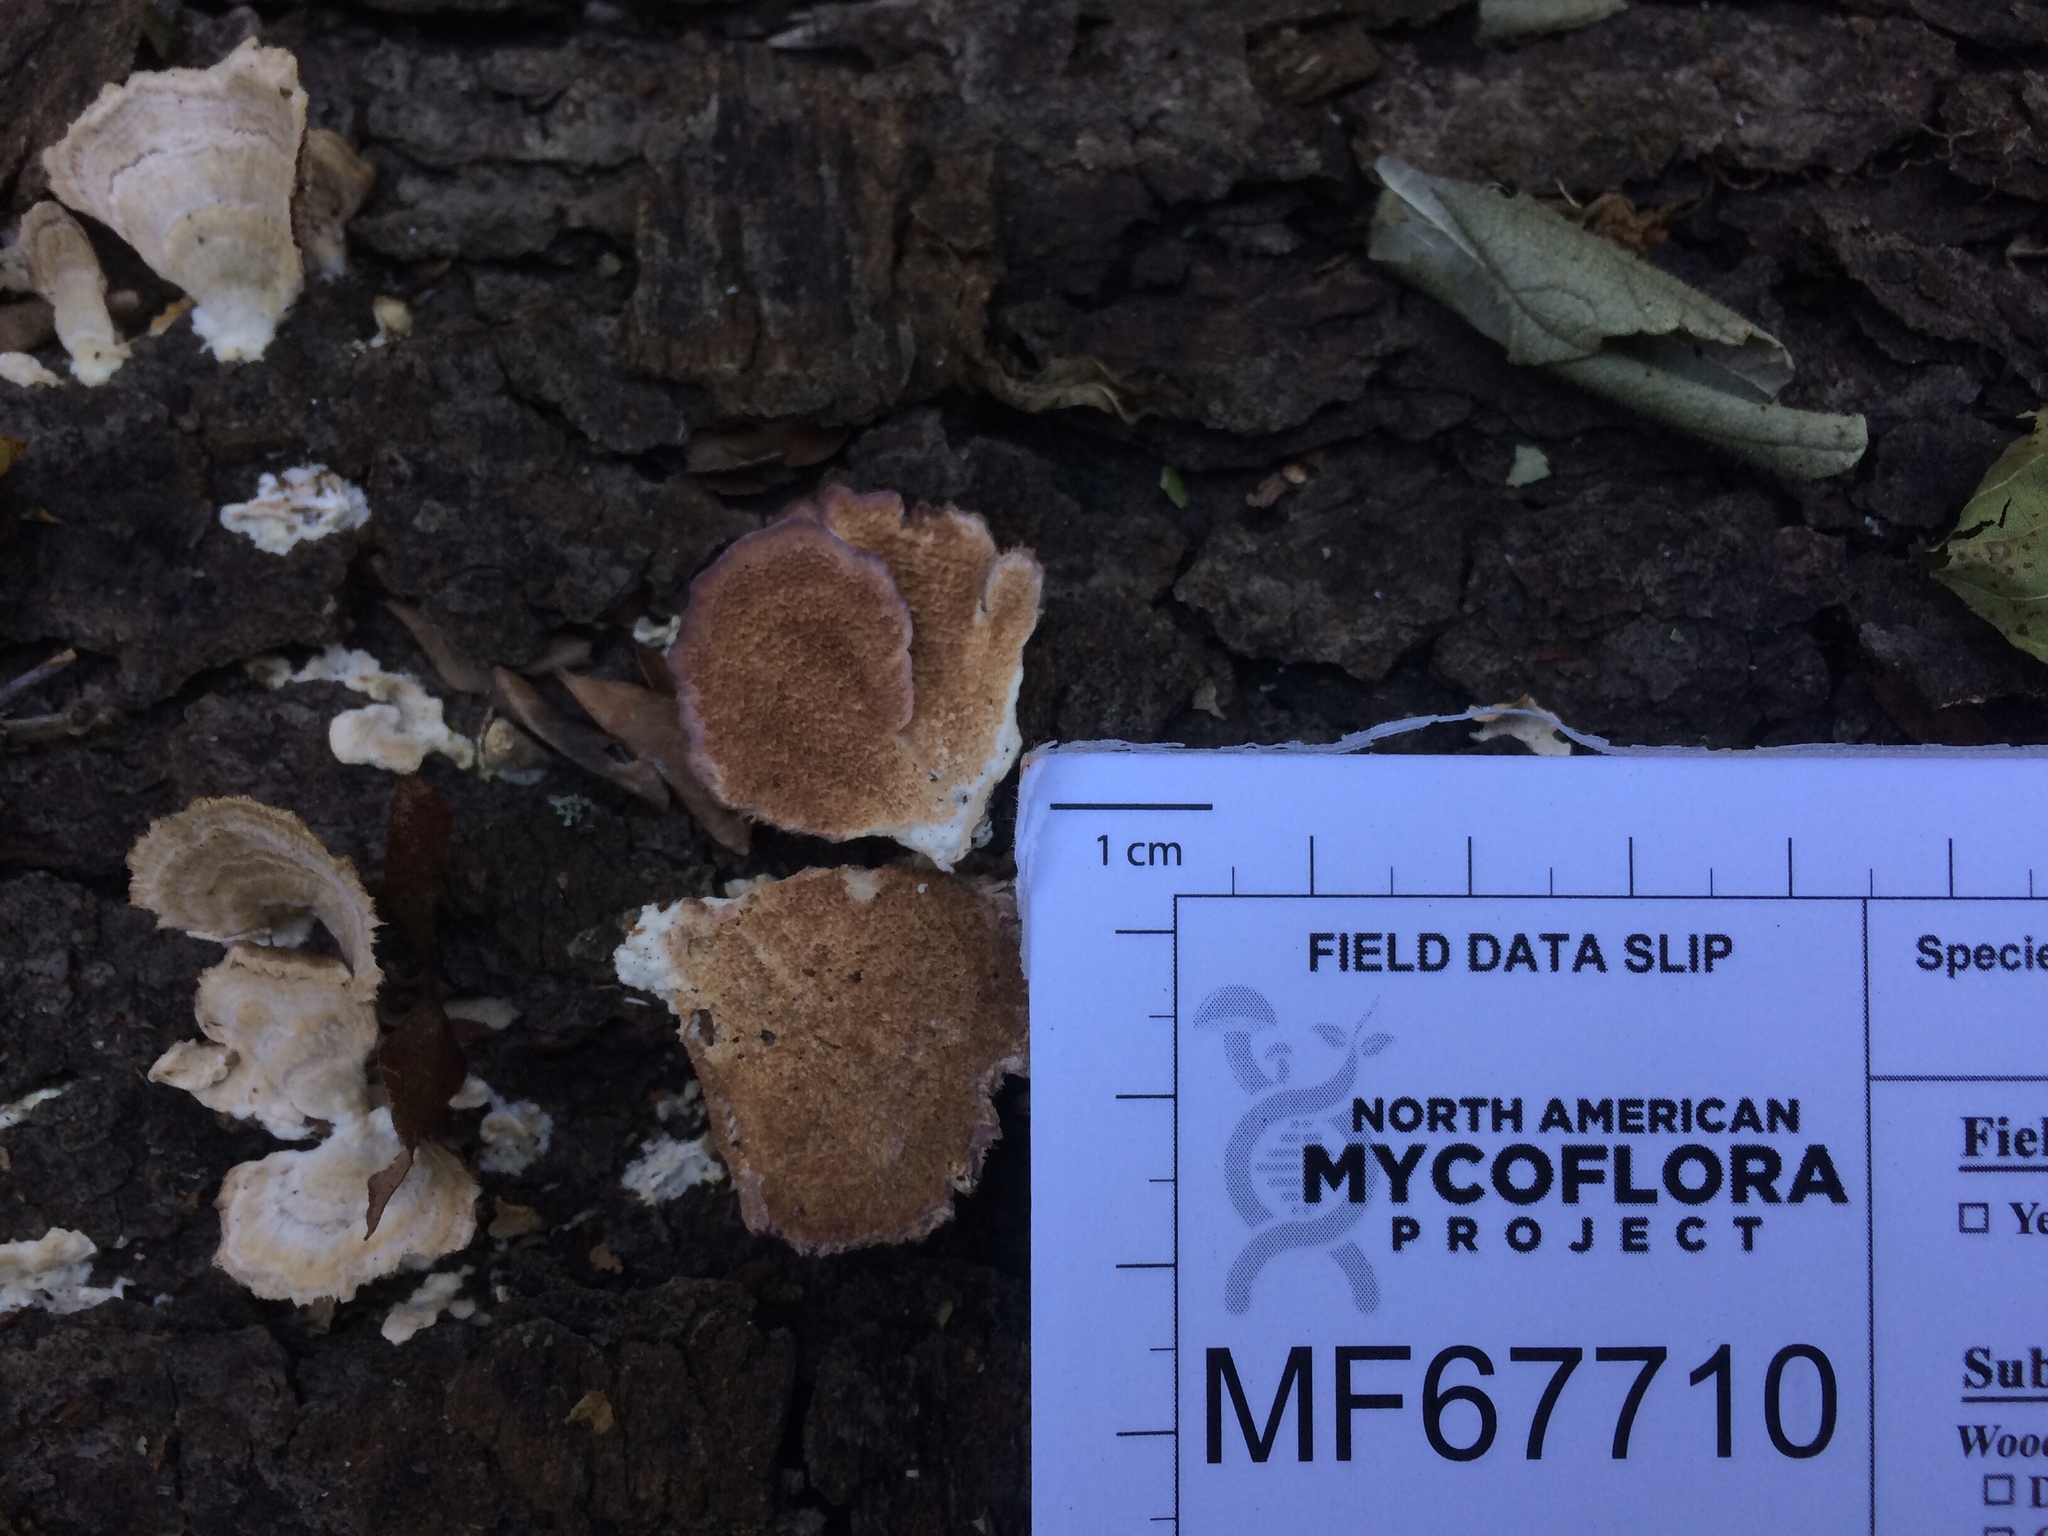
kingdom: Fungi
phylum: Basidiomycota
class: Agaricomycetes
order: Hymenochaetales
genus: Trichaptum
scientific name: Trichaptum abietinum
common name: Purplepore bracket
